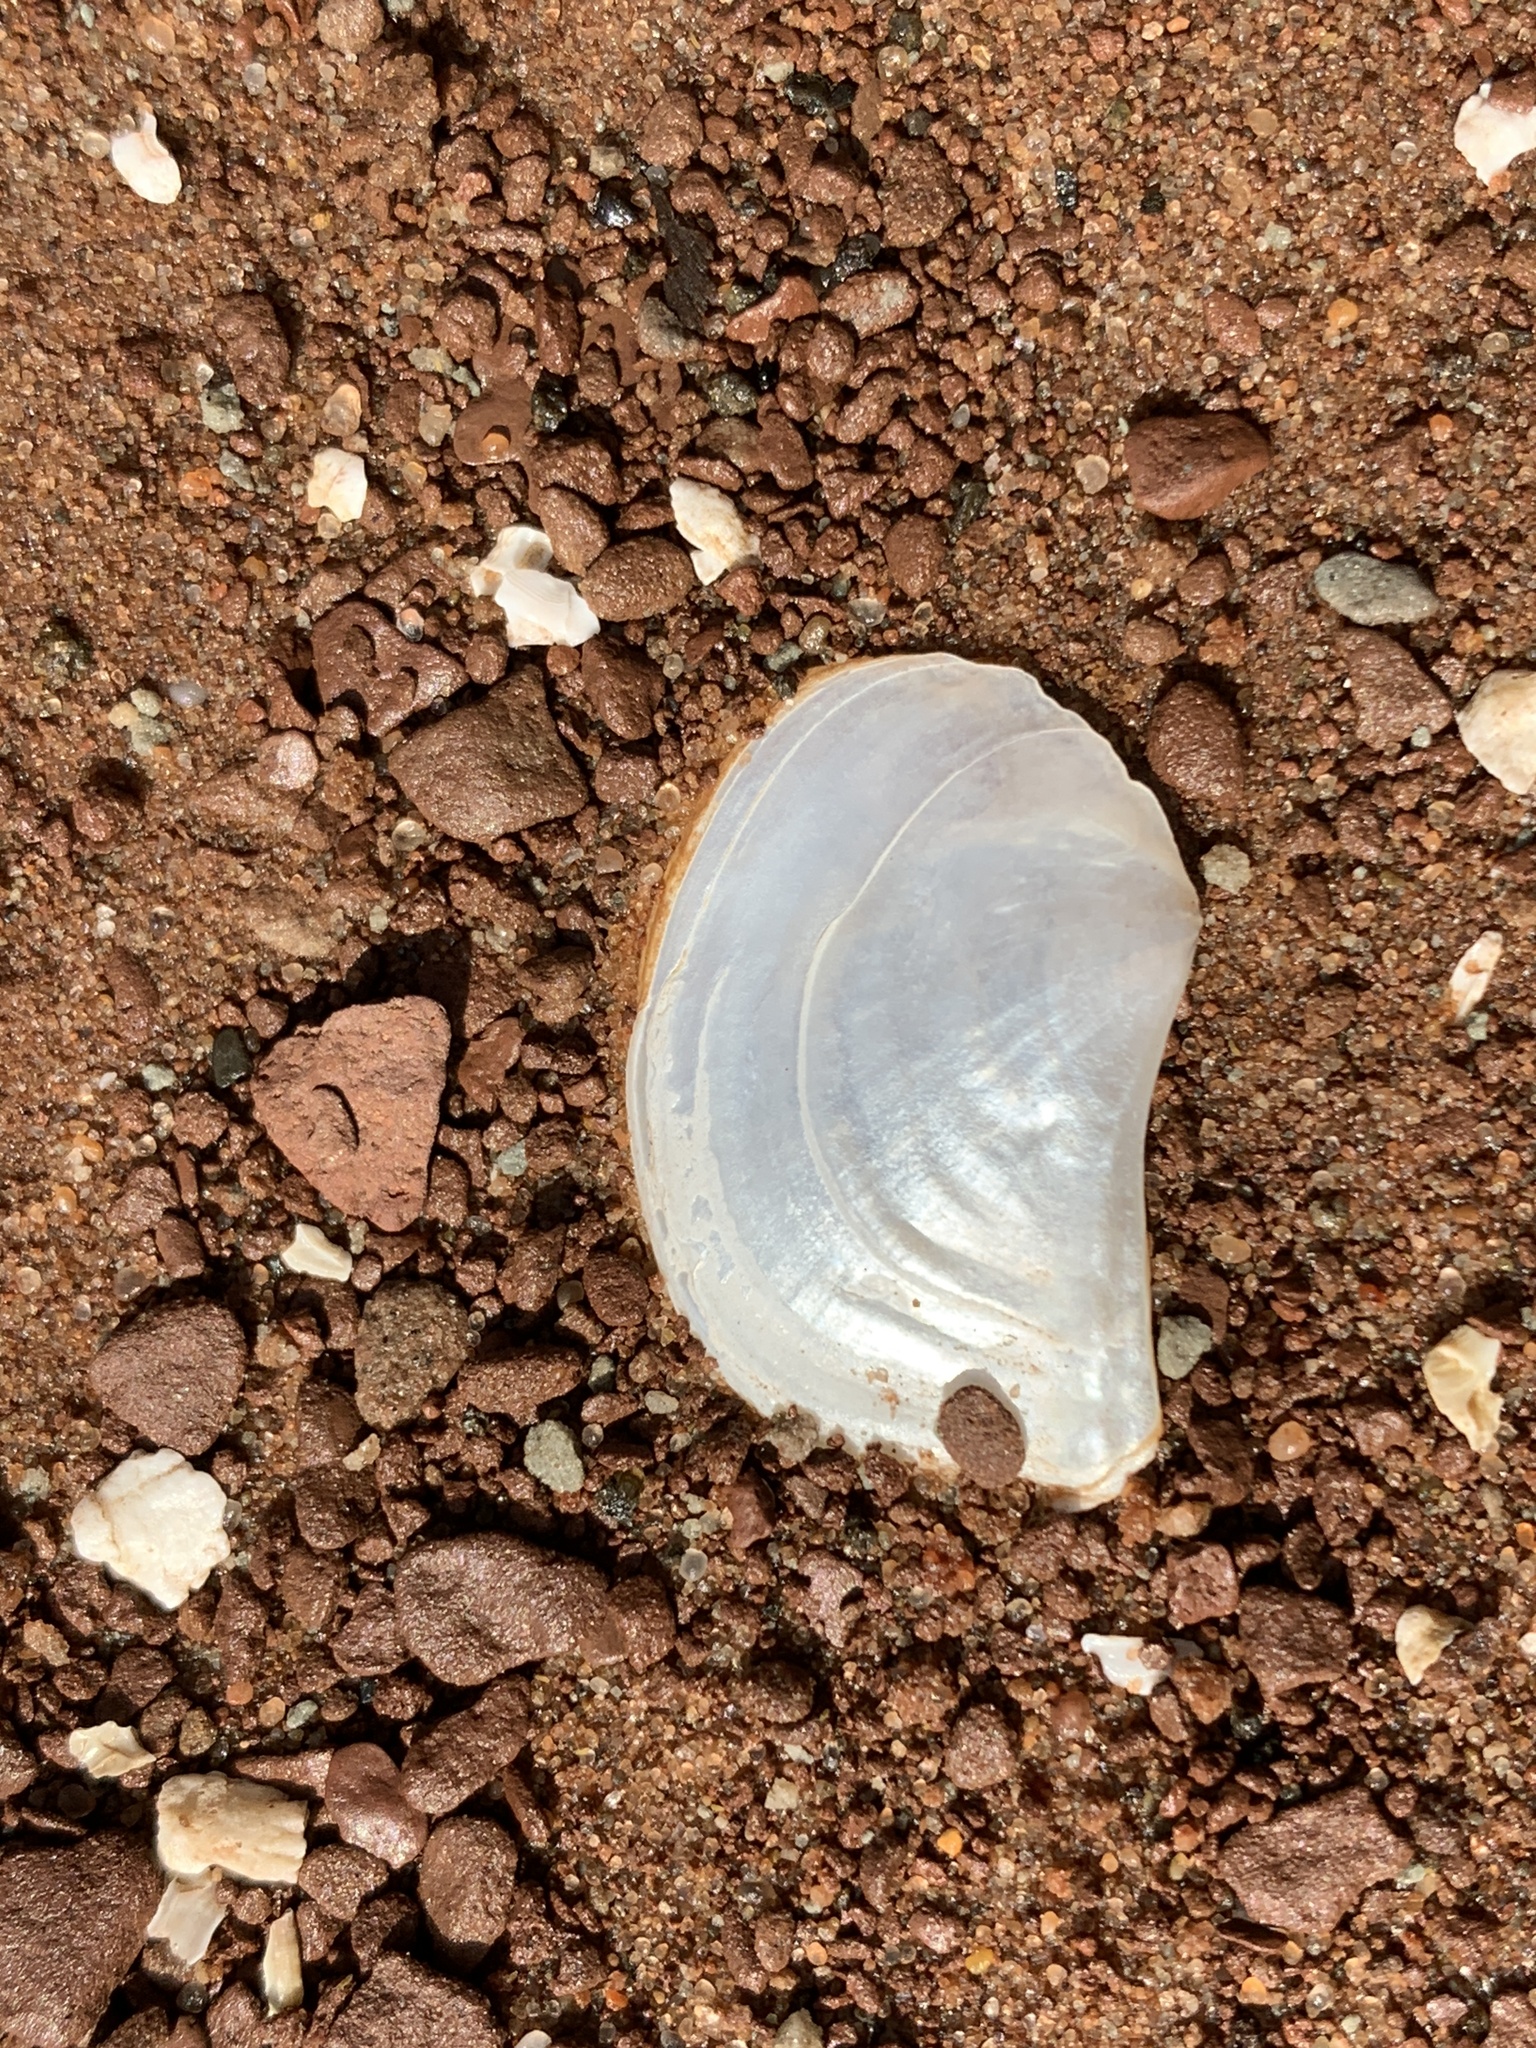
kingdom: Animalia
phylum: Mollusca
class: Bivalvia
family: Pandoridae
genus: Pandora
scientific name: Pandora gouldiana
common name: Rounded pandora
